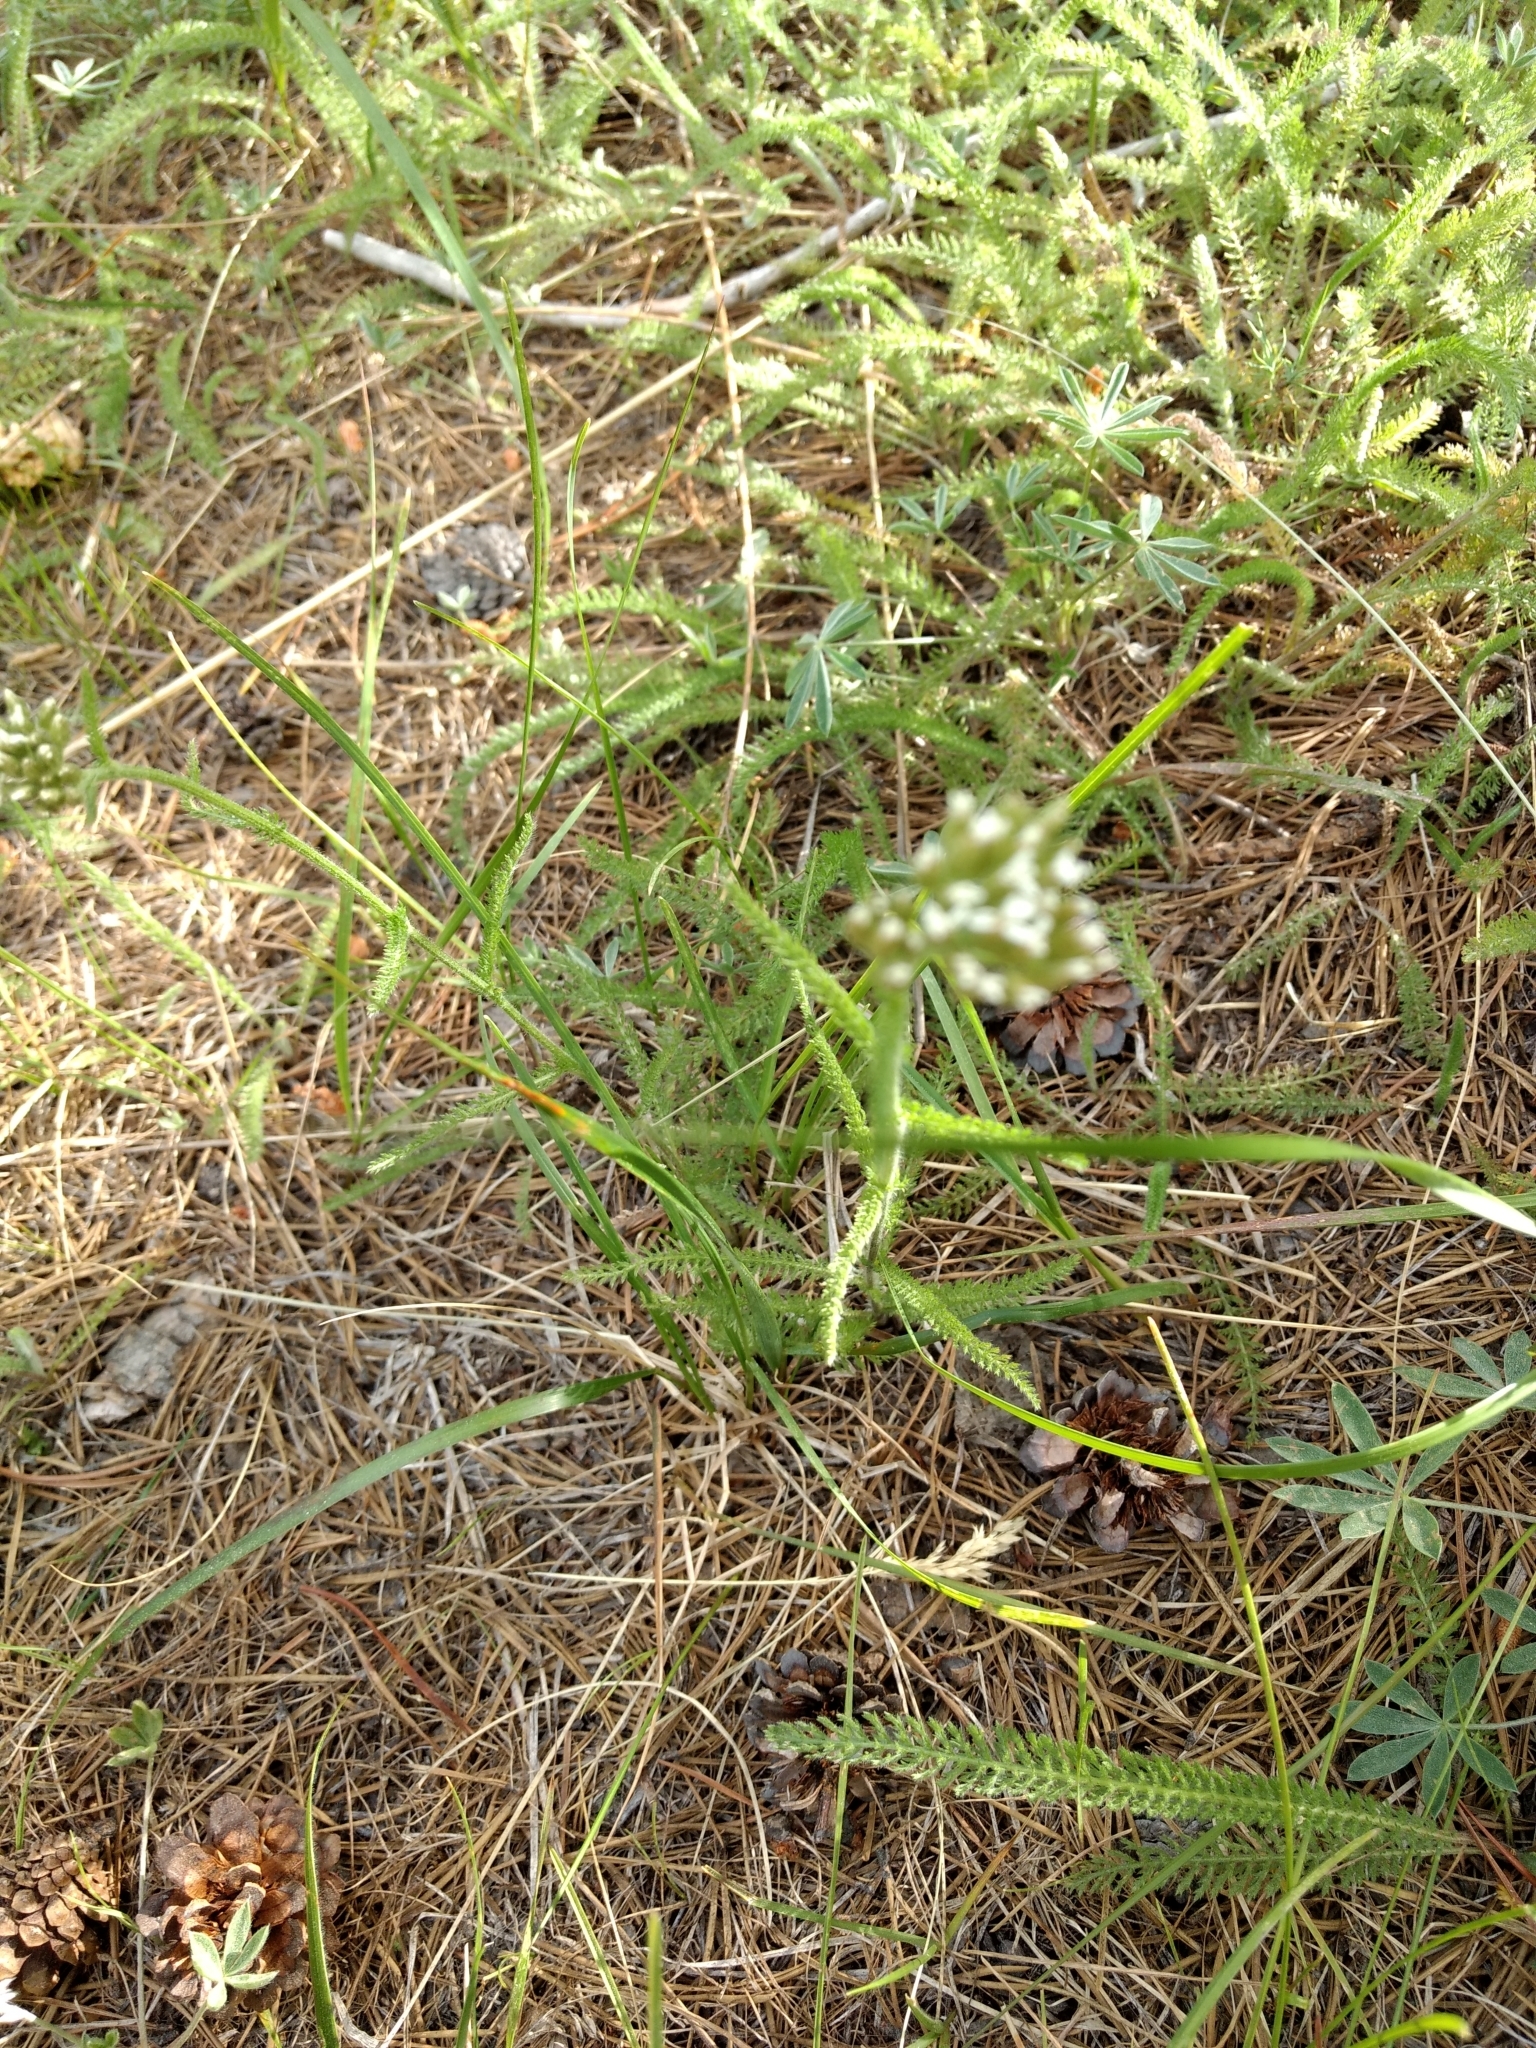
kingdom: Plantae
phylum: Tracheophyta
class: Magnoliopsida
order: Asterales
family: Asteraceae
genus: Achillea
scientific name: Achillea millefolium
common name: Yarrow
